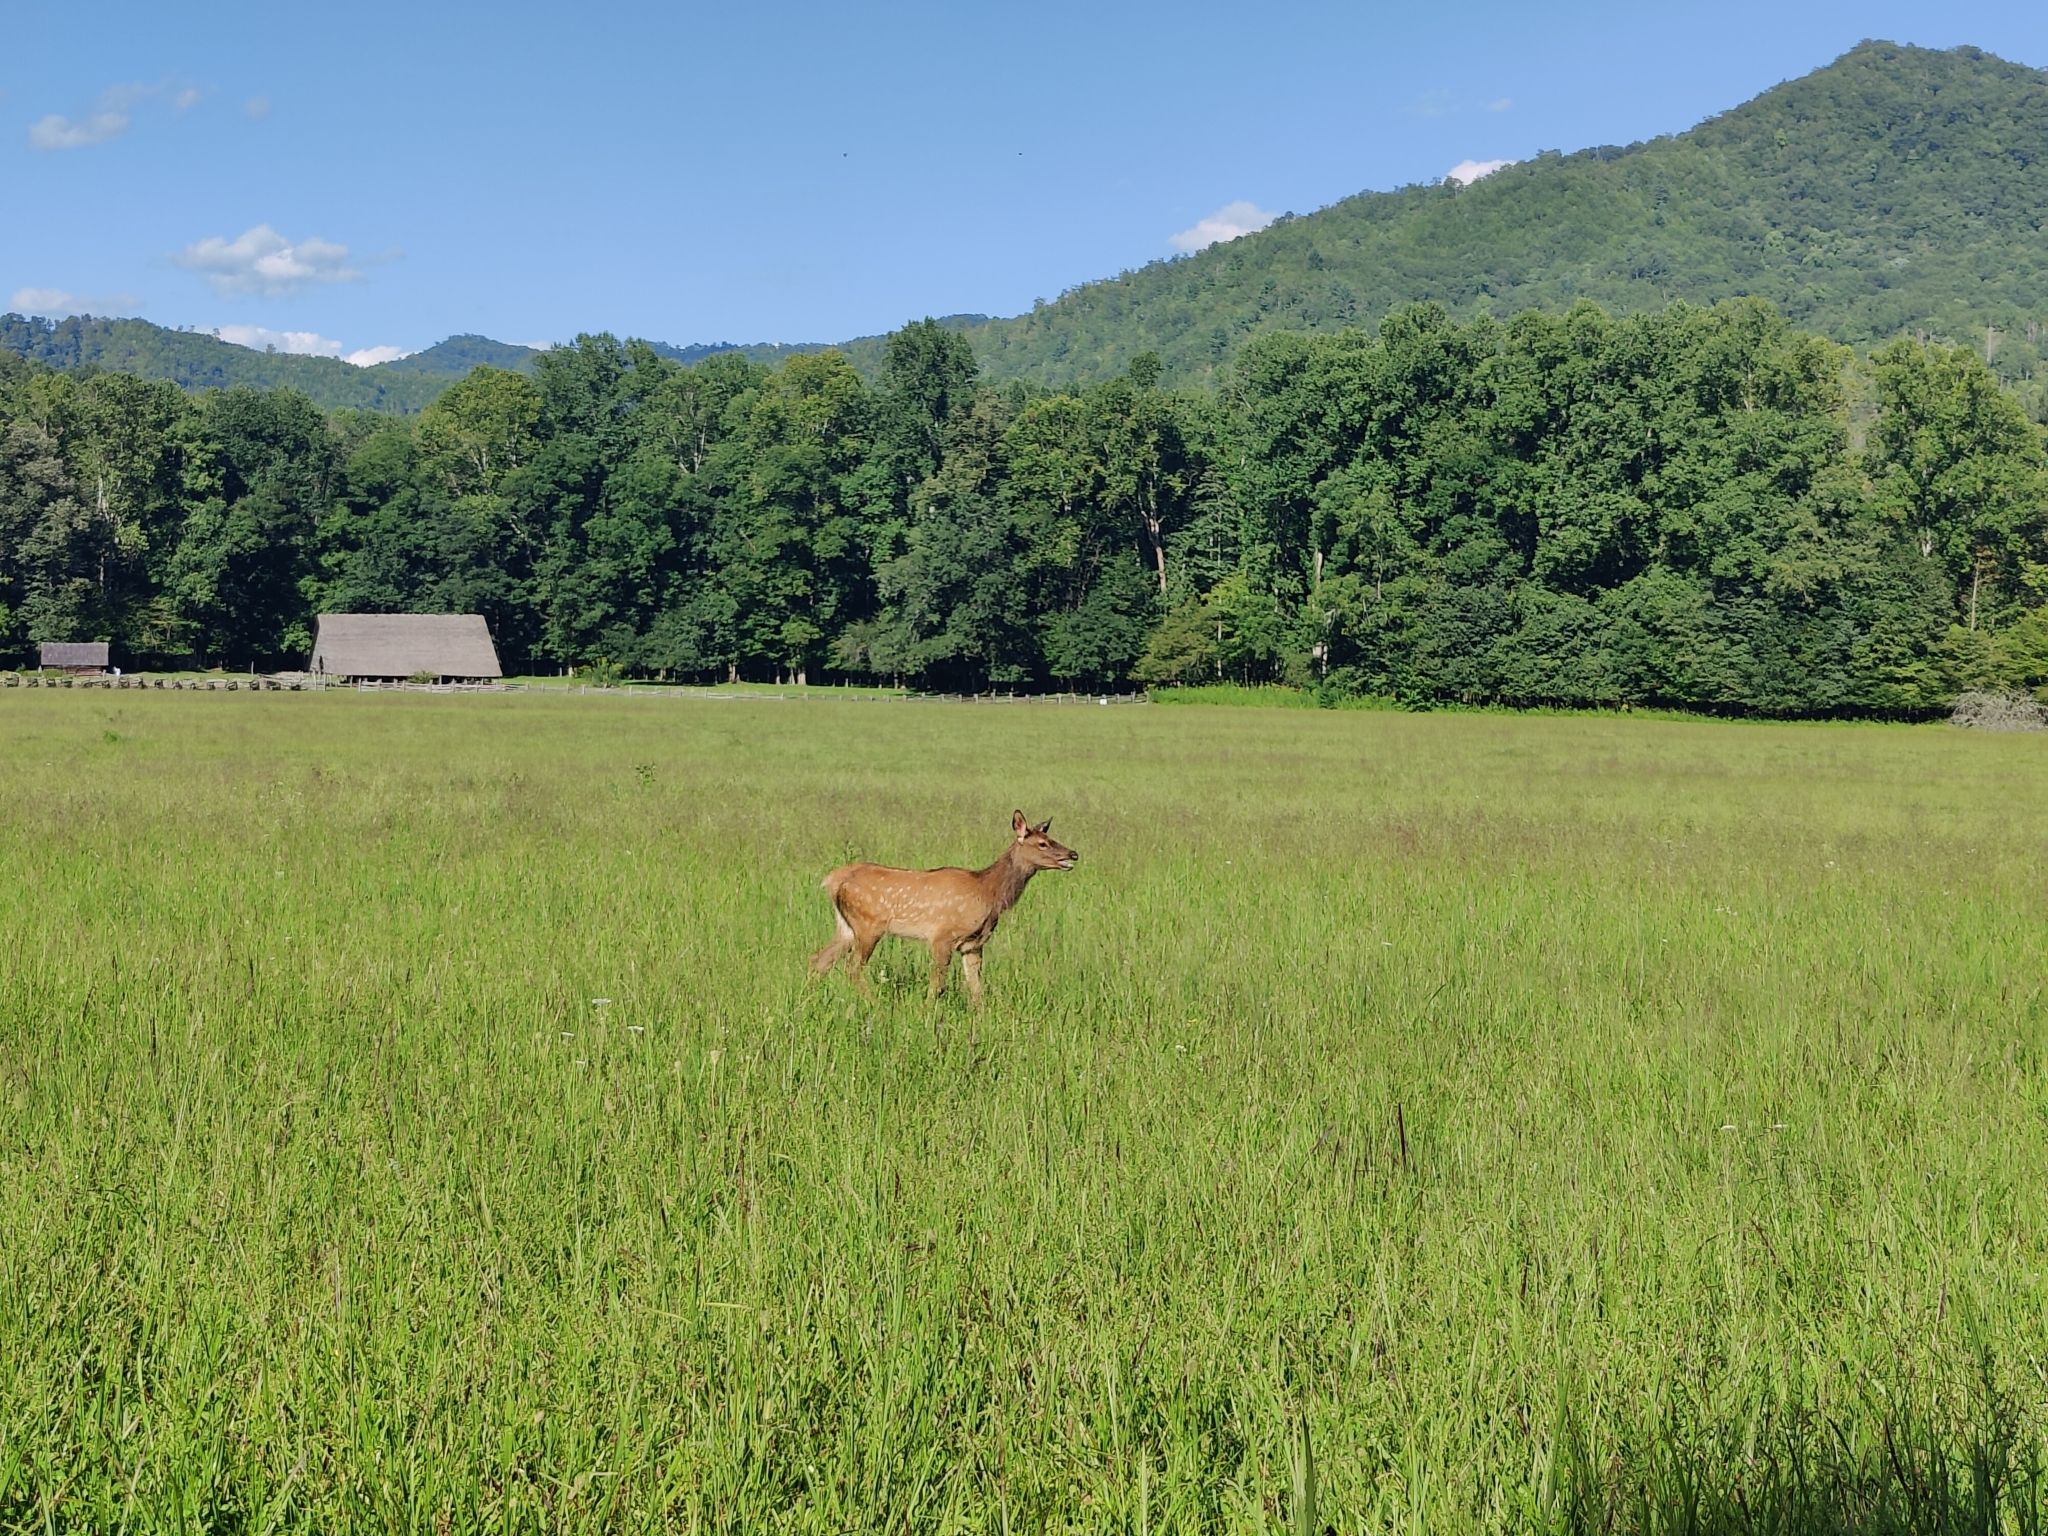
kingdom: Animalia
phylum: Chordata
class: Mammalia
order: Artiodactyla
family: Cervidae
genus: Cervus
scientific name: Cervus elaphus
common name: Red deer
